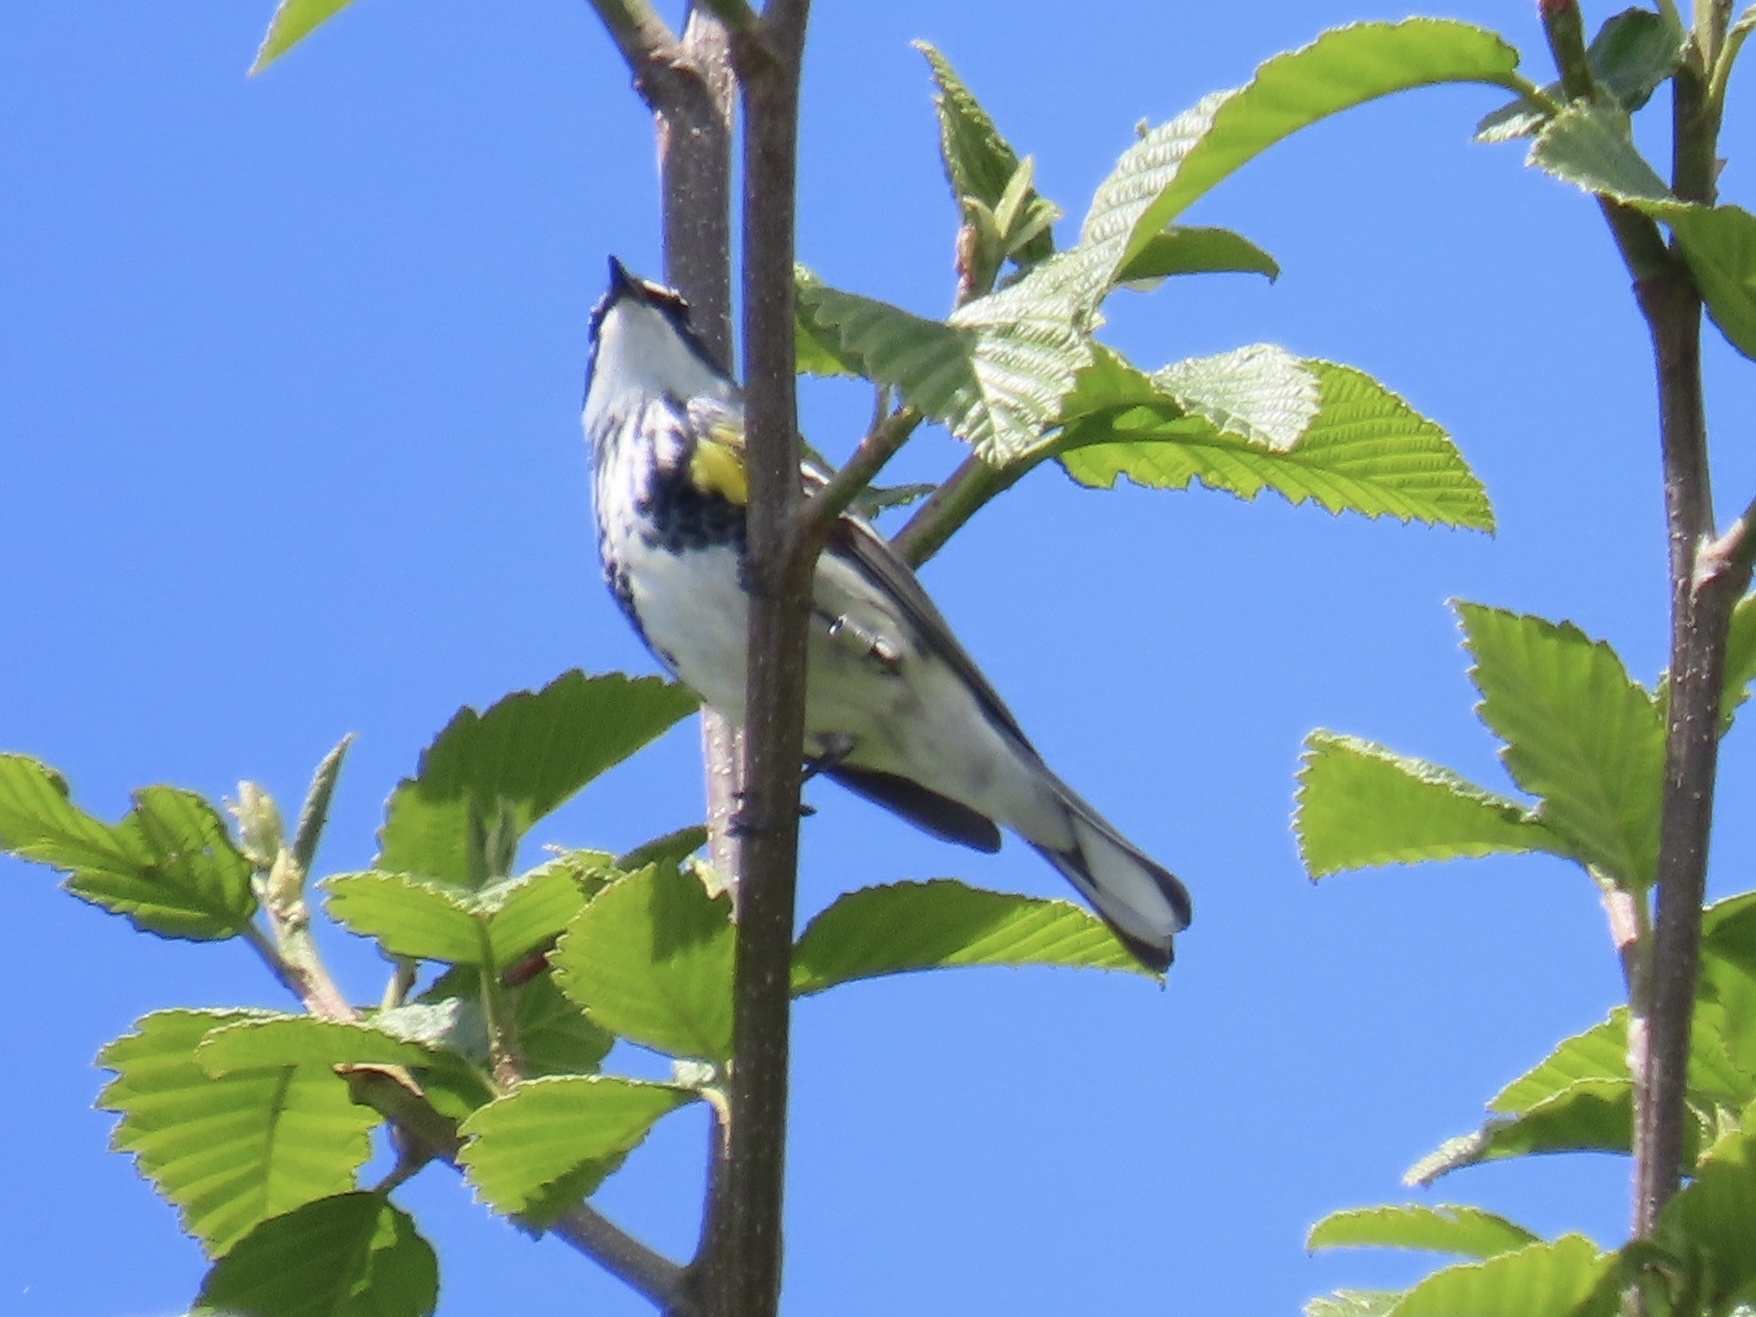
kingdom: Animalia
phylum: Chordata
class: Aves
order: Passeriformes
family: Parulidae
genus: Setophaga
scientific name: Setophaga coronata
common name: Myrtle warbler
